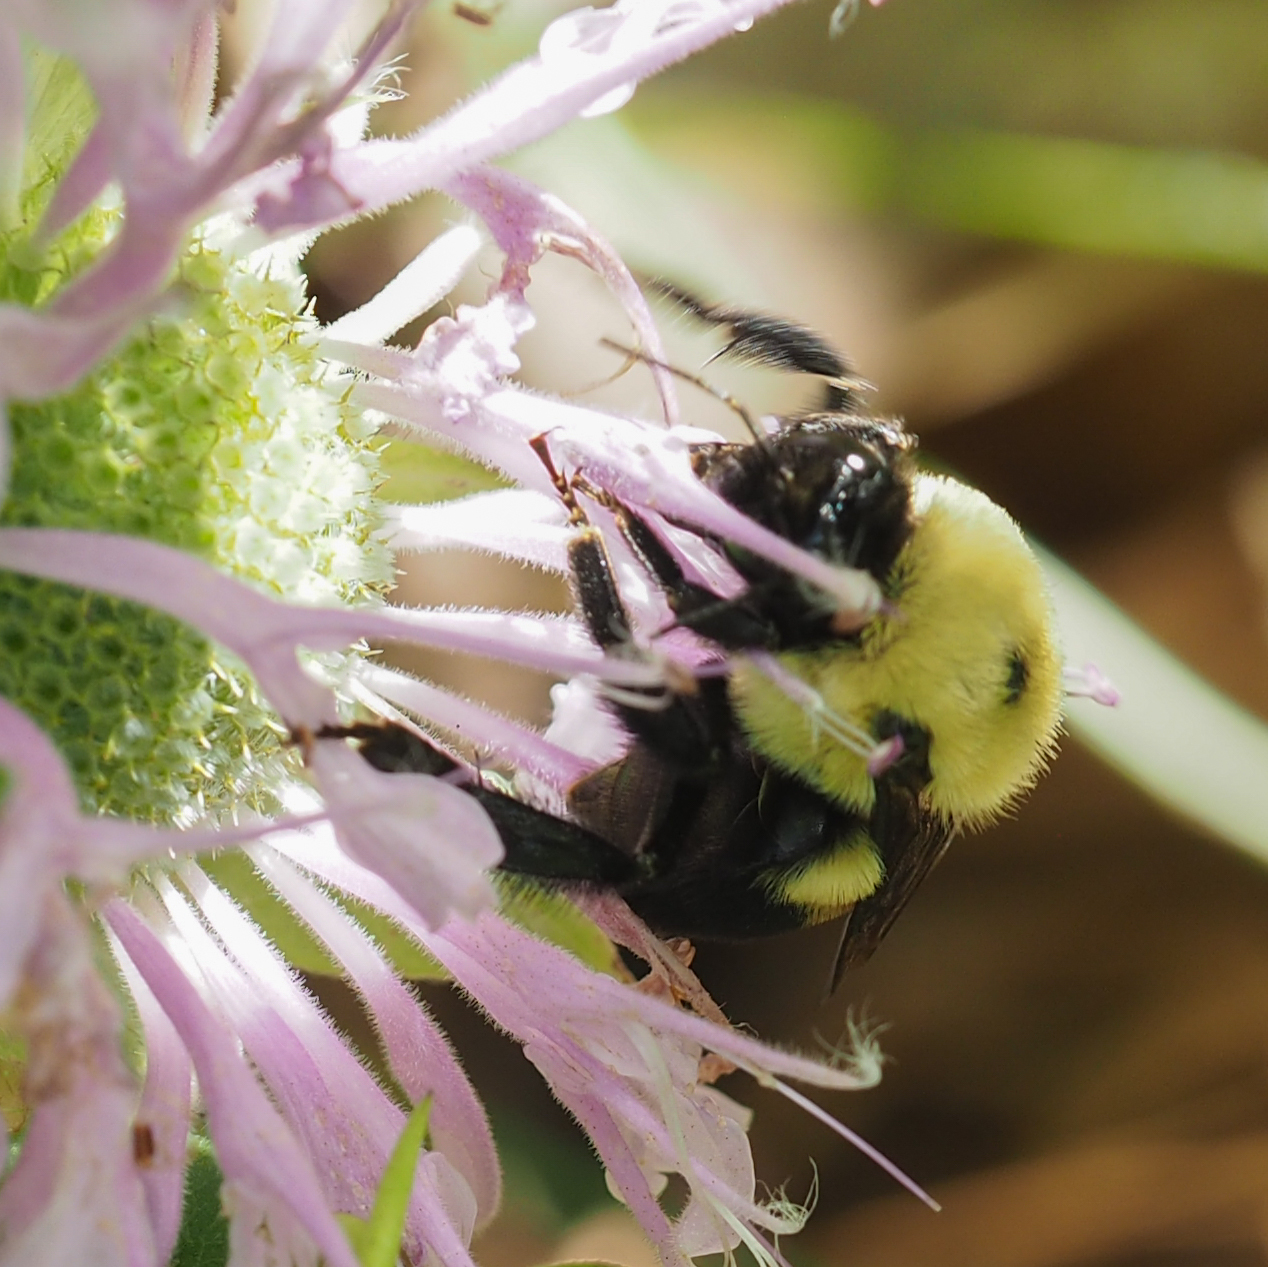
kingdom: Animalia
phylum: Arthropoda
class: Insecta
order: Hymenoptera
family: Apidae
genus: Bombus
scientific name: Bombus griseocollis
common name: Brown-belted bumble bee
